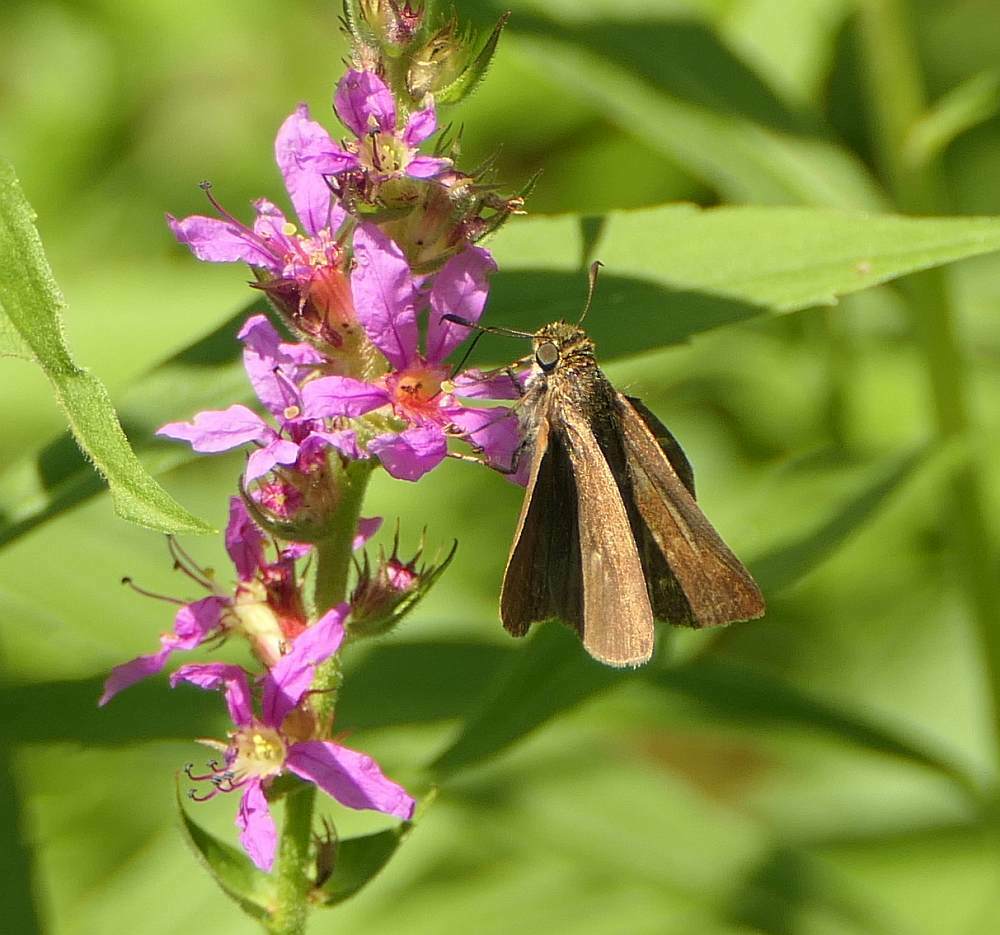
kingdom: Animalia
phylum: Arthropoda
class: Insecta
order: Lepidoptera
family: Hesperiidae
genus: Euphyes
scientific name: Euphyes vestris
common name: Dun skipper
